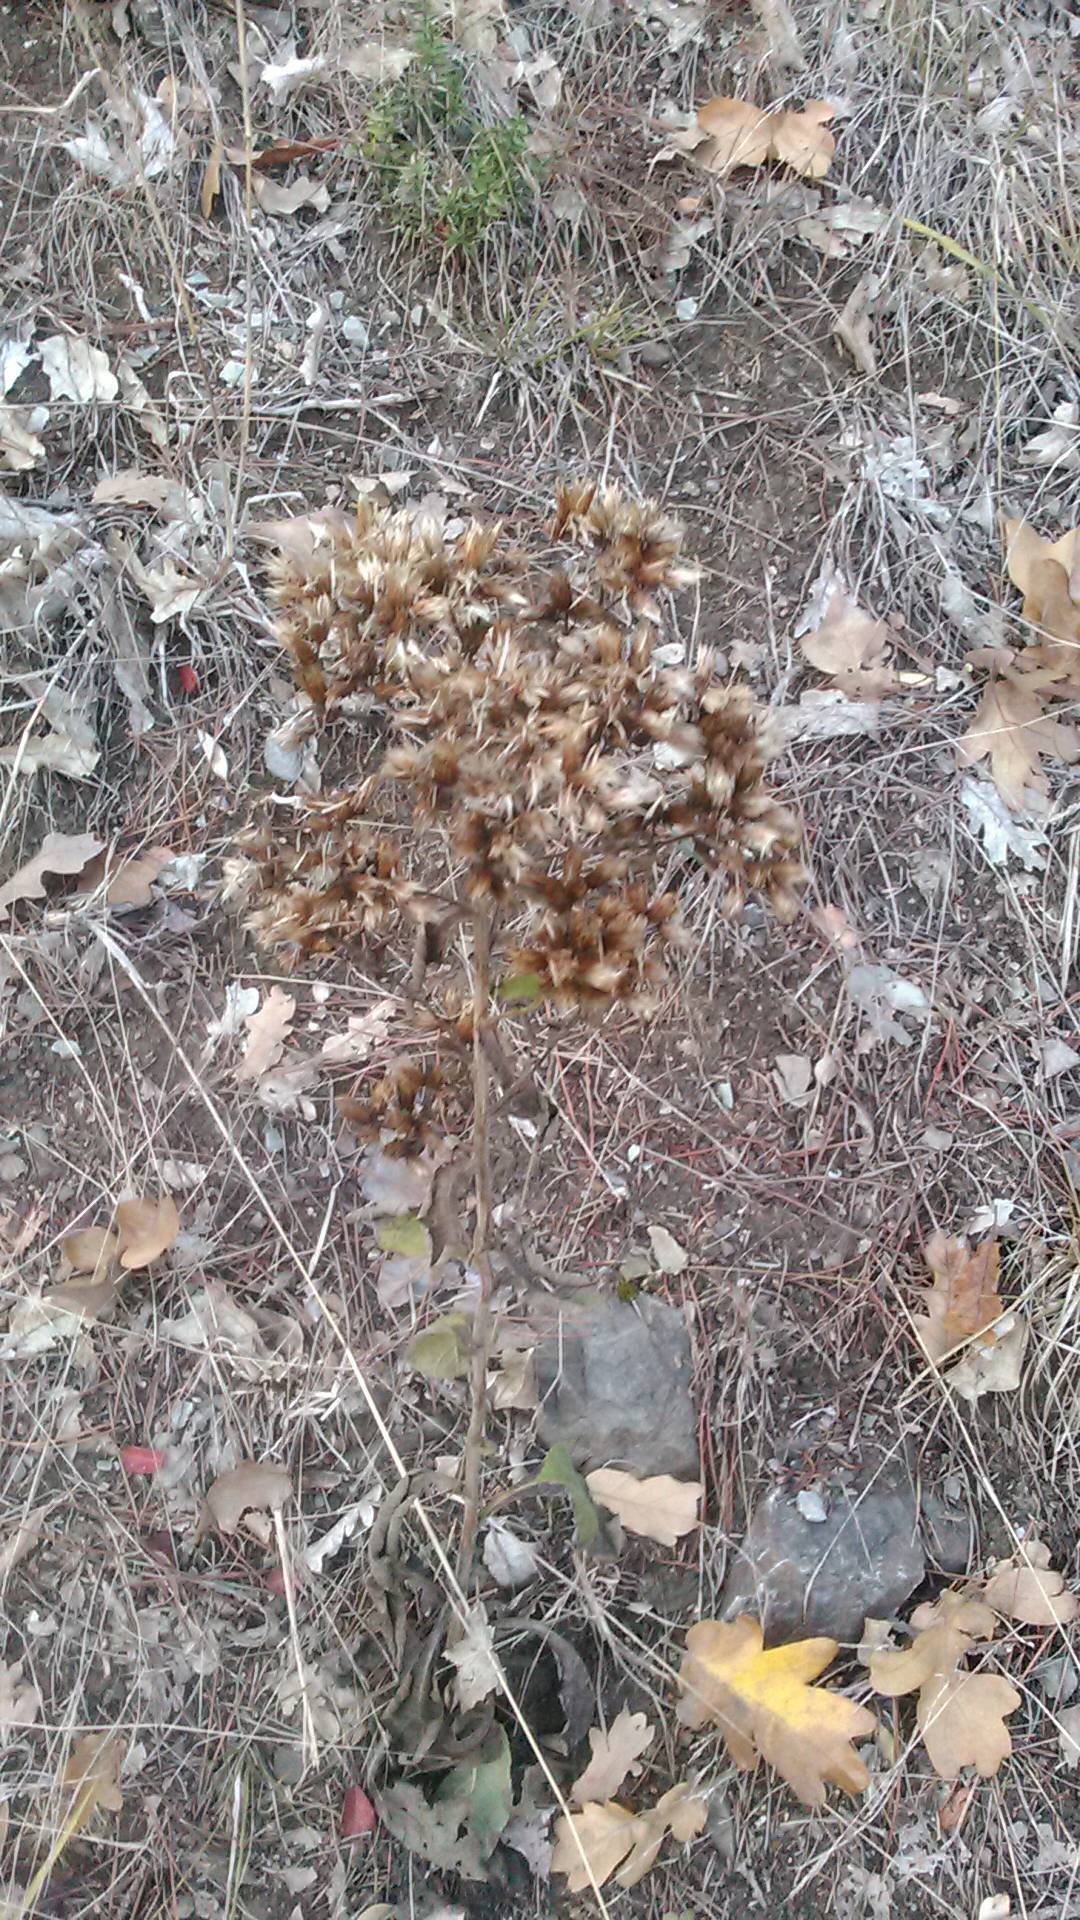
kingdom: Plantae
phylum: Tracheophyta
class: Magnoliopsida
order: Asterales
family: Asteraceae
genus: Pentanema
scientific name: Pentanema squarrosum
